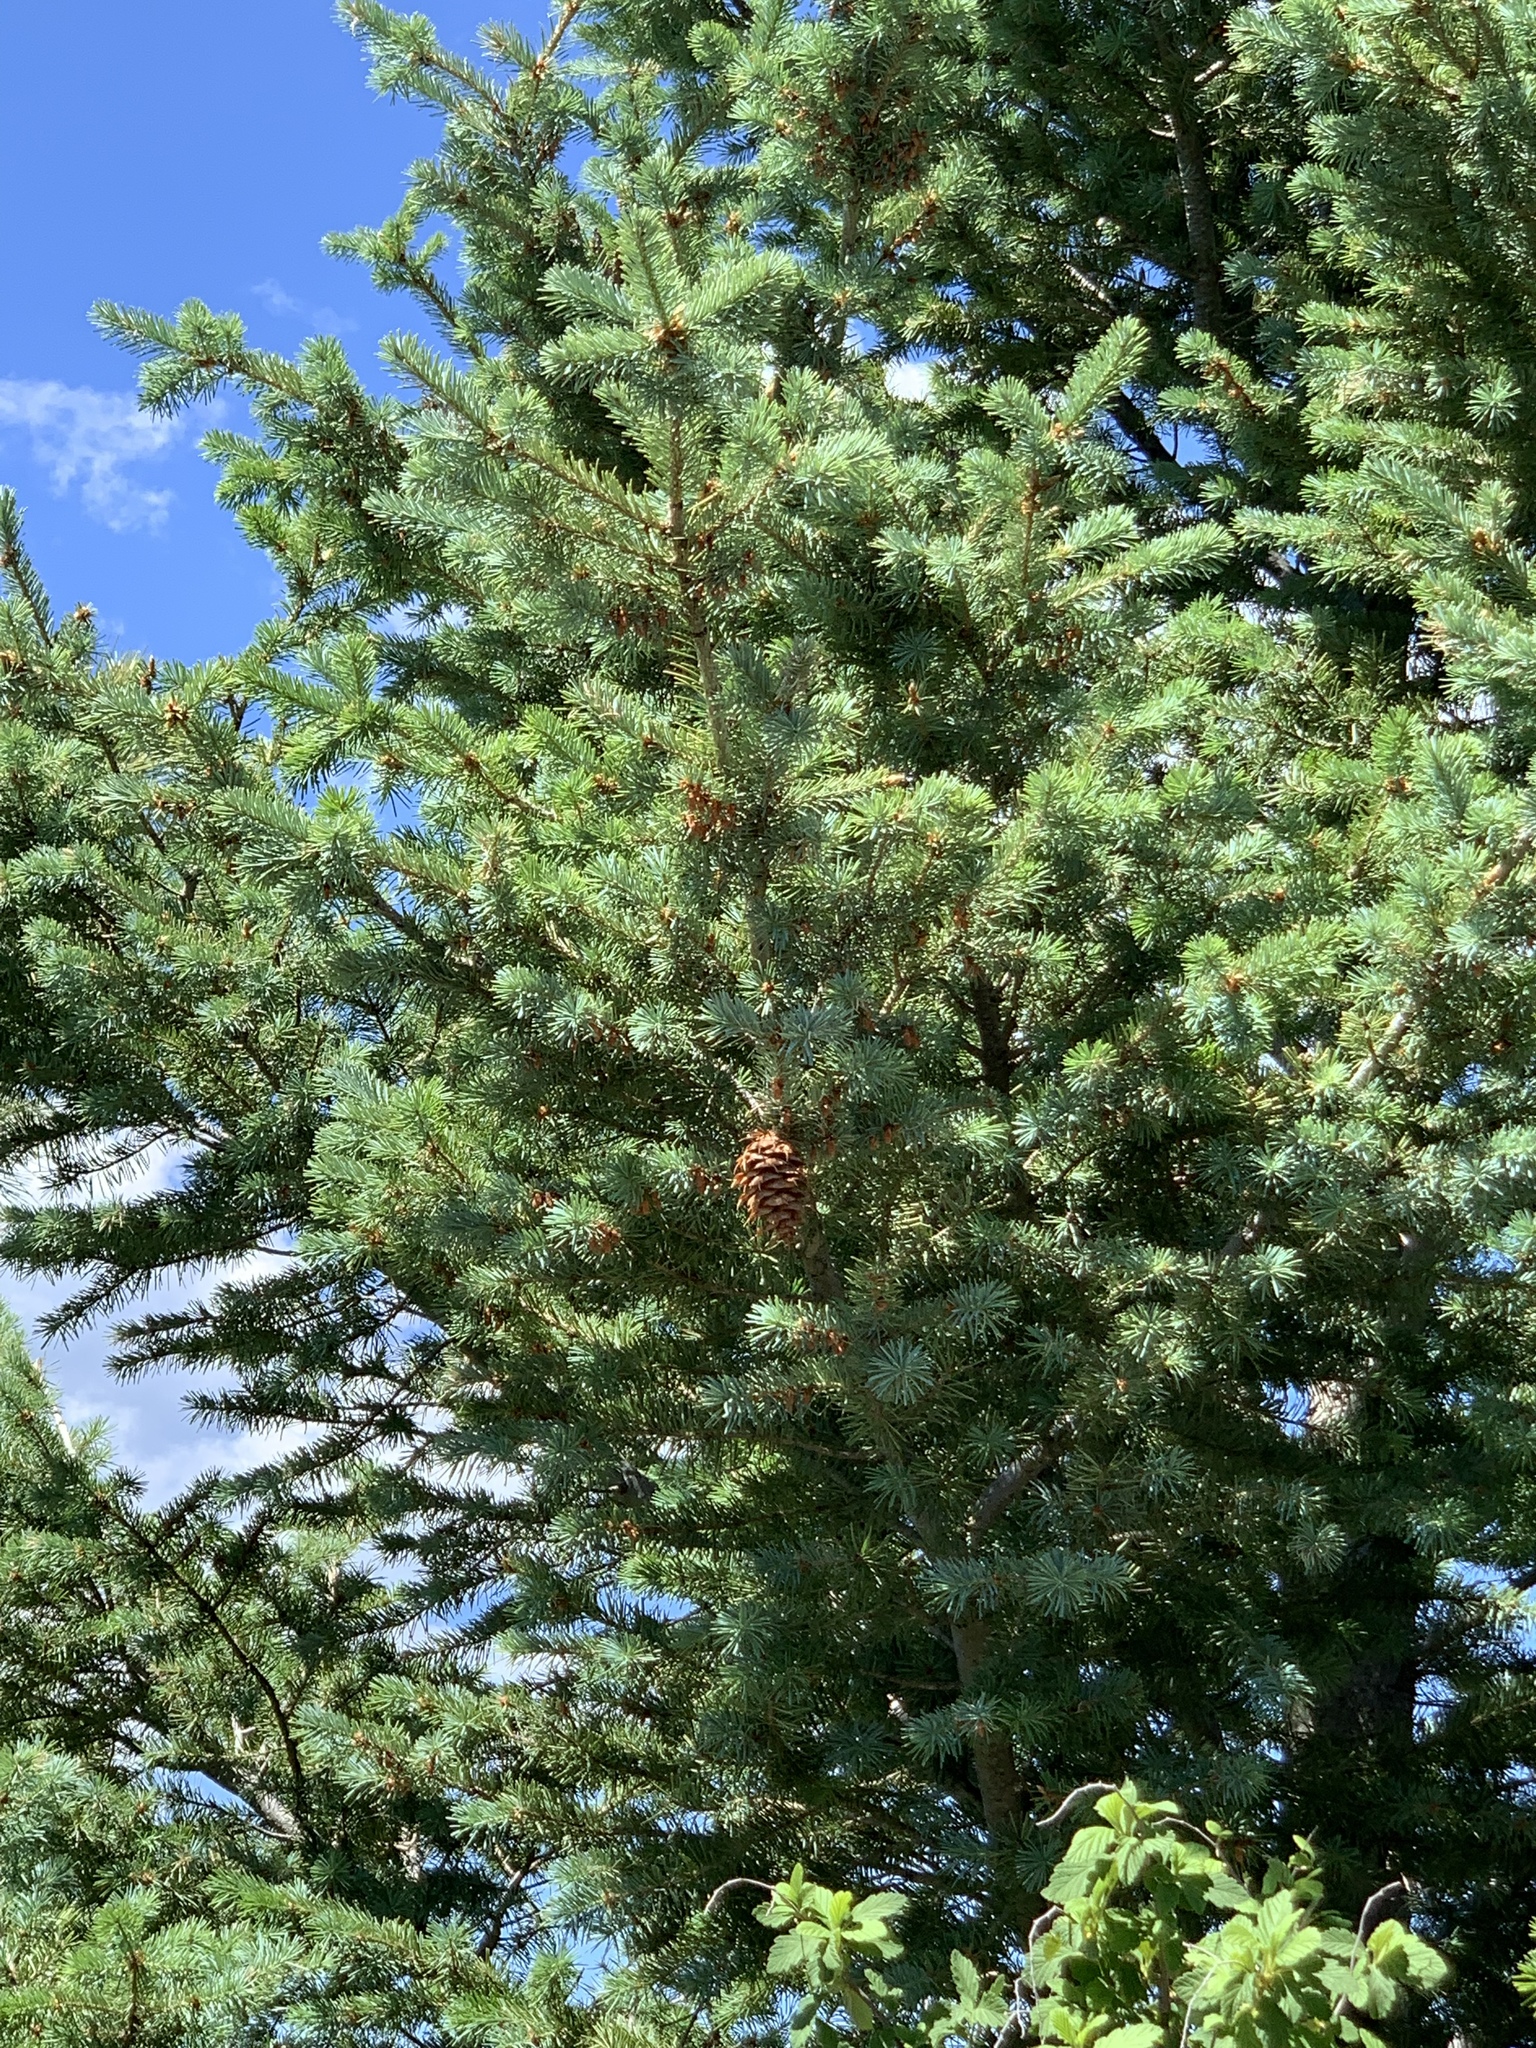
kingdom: Plantae
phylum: Tracheophyta
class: Pinopsida
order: Pinales
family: Pinaceae
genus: Pseudotsuga
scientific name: Pseudotsuga menziesii
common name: Douglas fir
